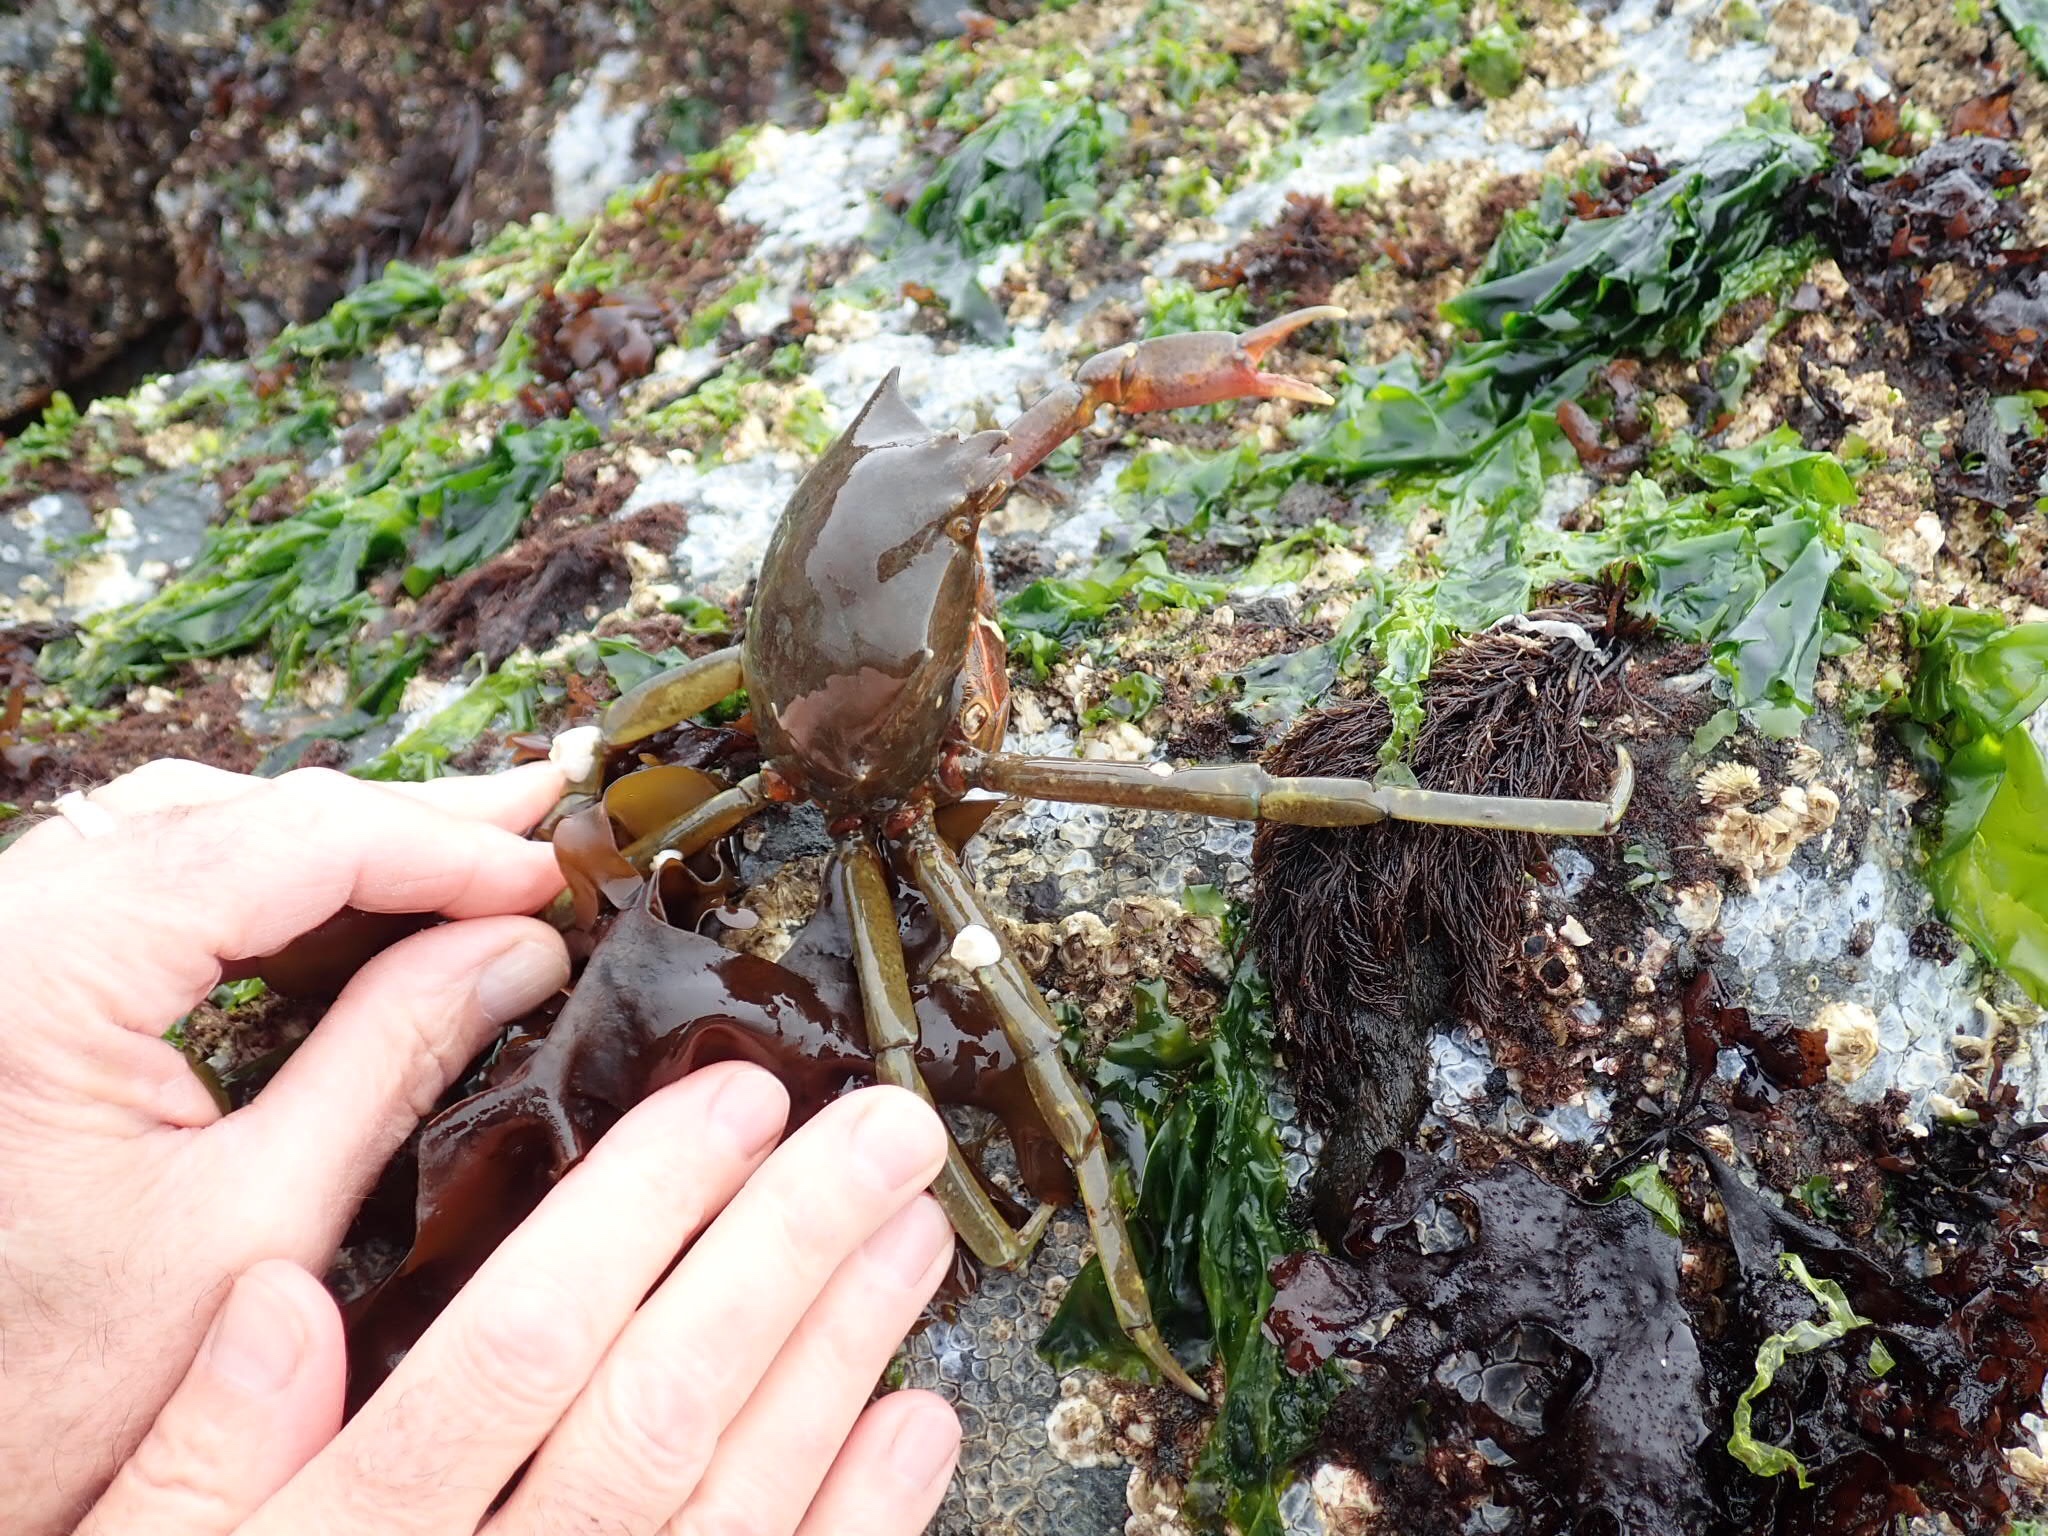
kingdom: Animalia
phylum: Arthropoda
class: Malacostraca
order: Decapoda
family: Epialtidae
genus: Pugettia
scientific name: Pugettia producta
